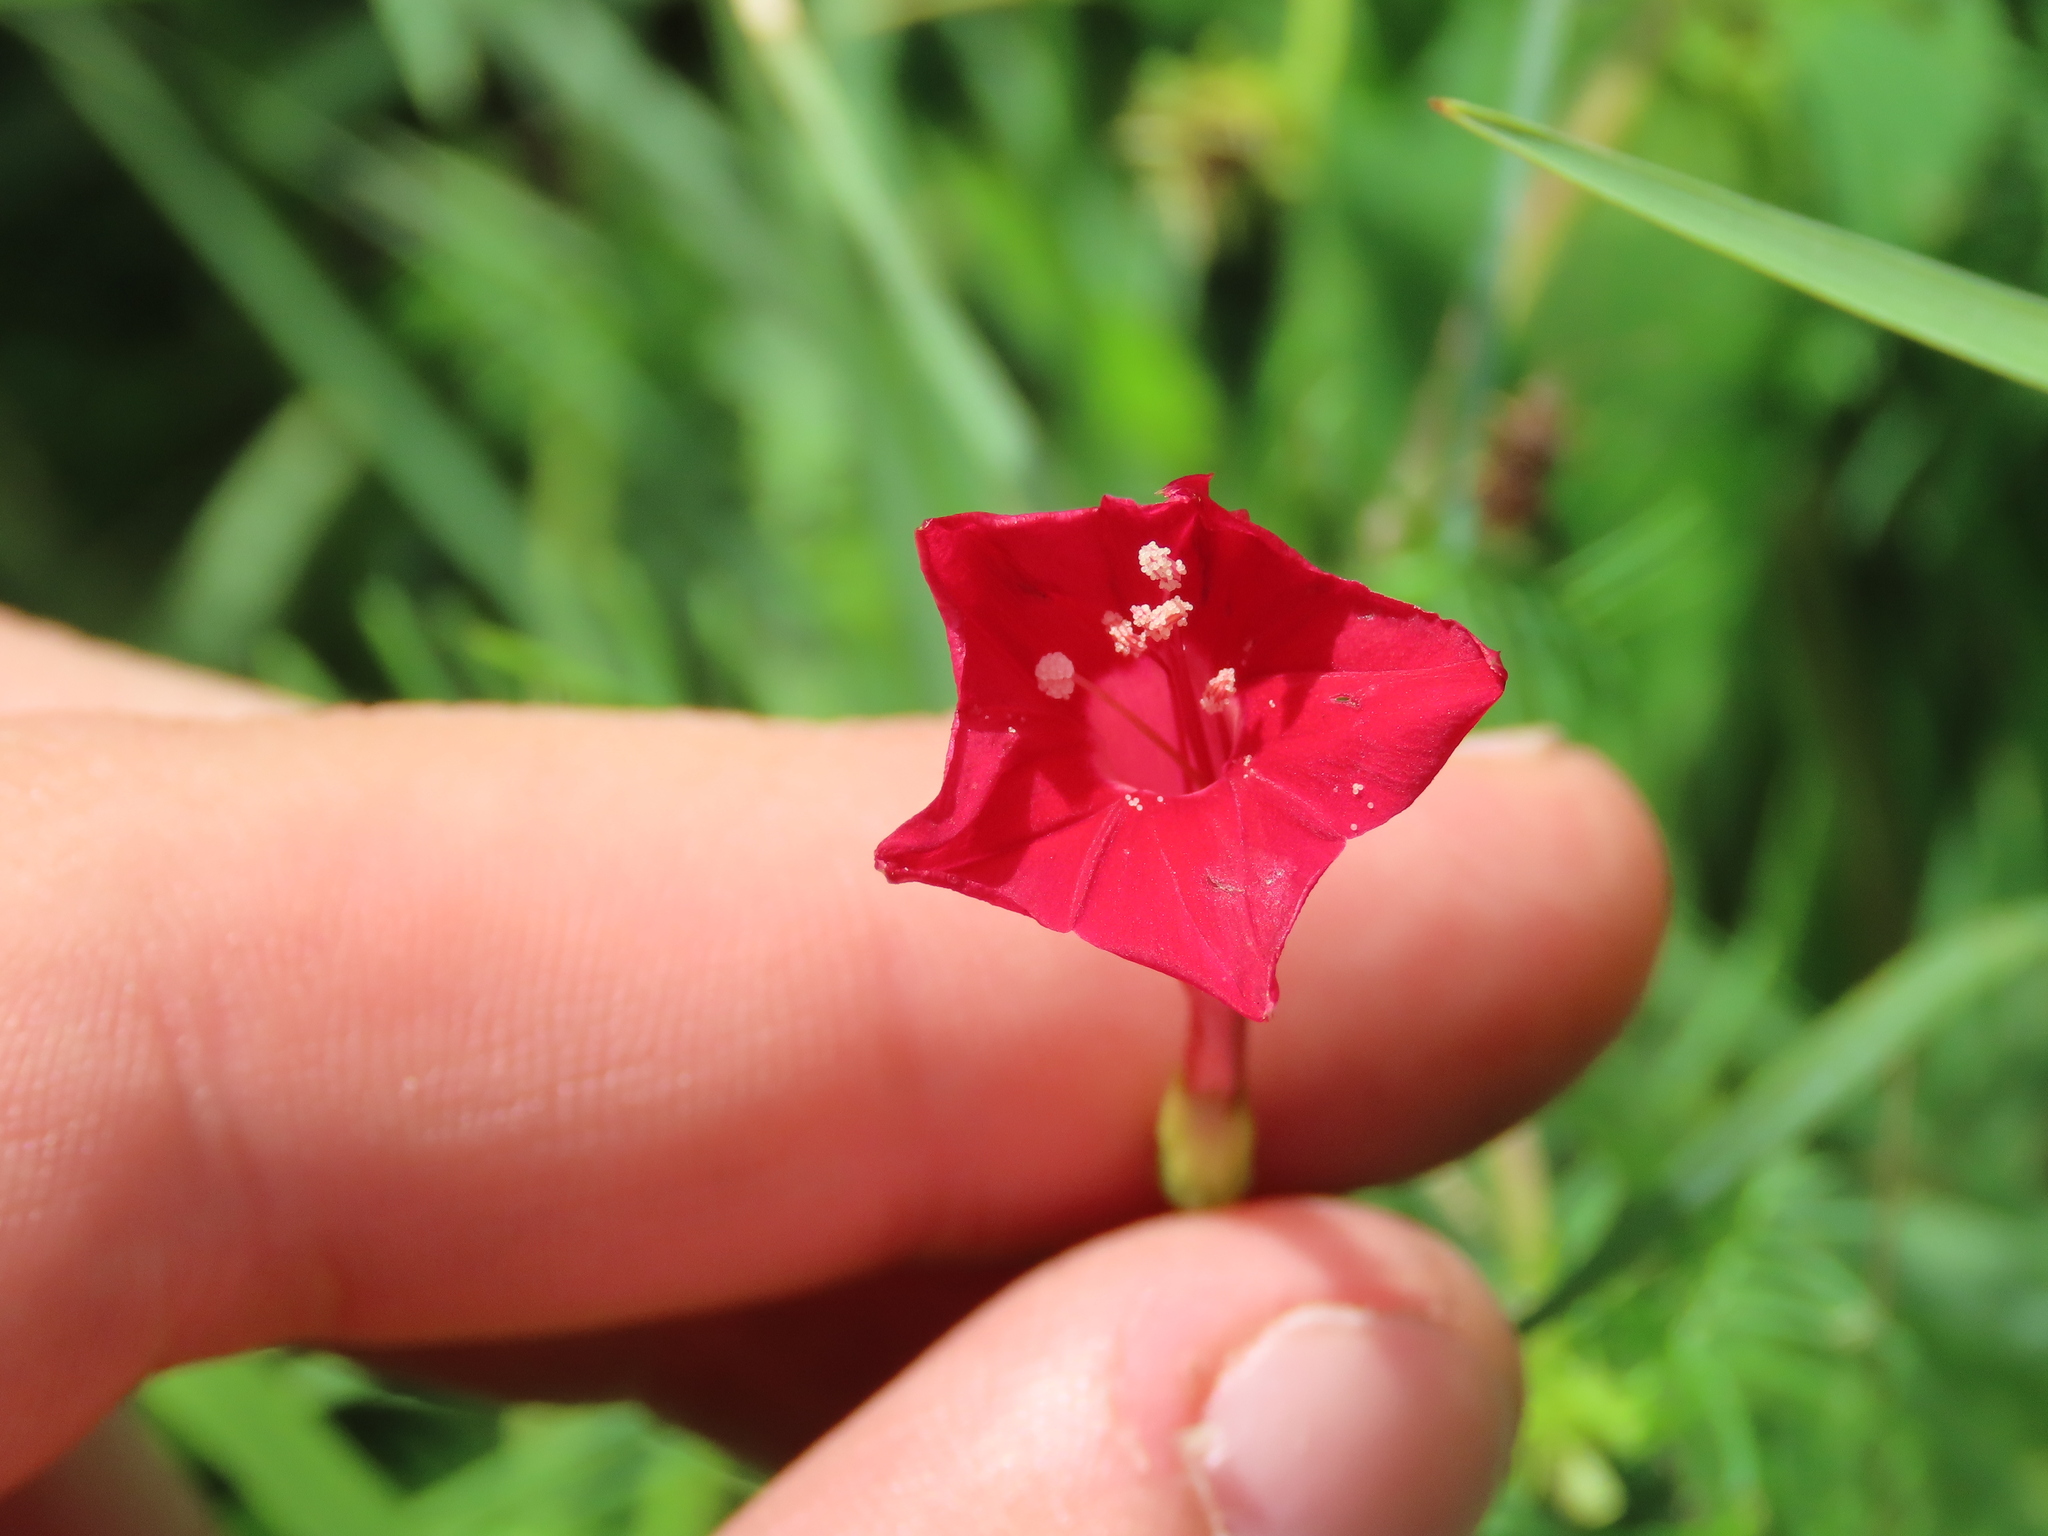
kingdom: Plantae
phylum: Tracheophyta
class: Magnoliopsida
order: Solanales
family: Convolvulaceae
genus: Ipomoea
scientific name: Ipomoea quamoclit
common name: Cypress vine
